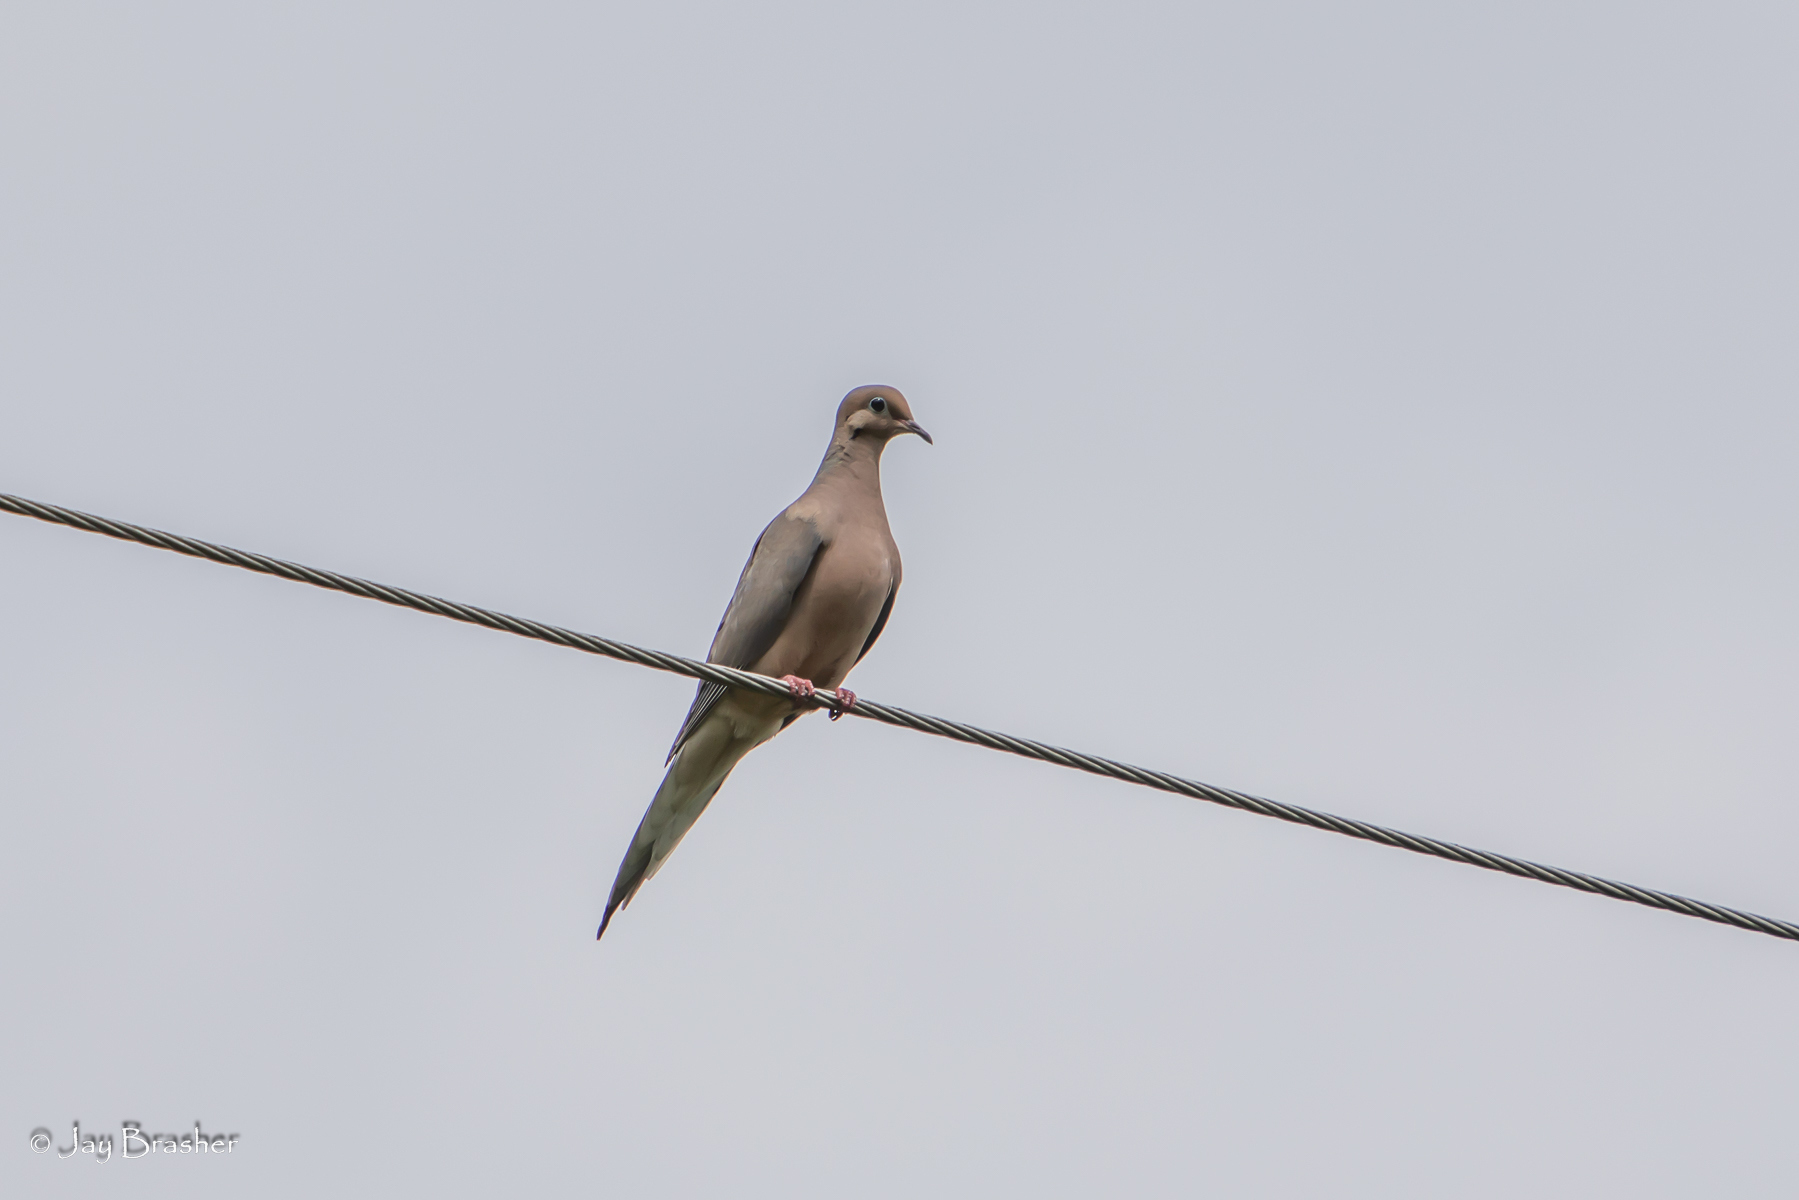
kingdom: Animalia
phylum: Chordata
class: Aves
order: Columbiformes
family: Columbidae
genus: Zenaida
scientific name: Zenaida macroura
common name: Mourning dove
